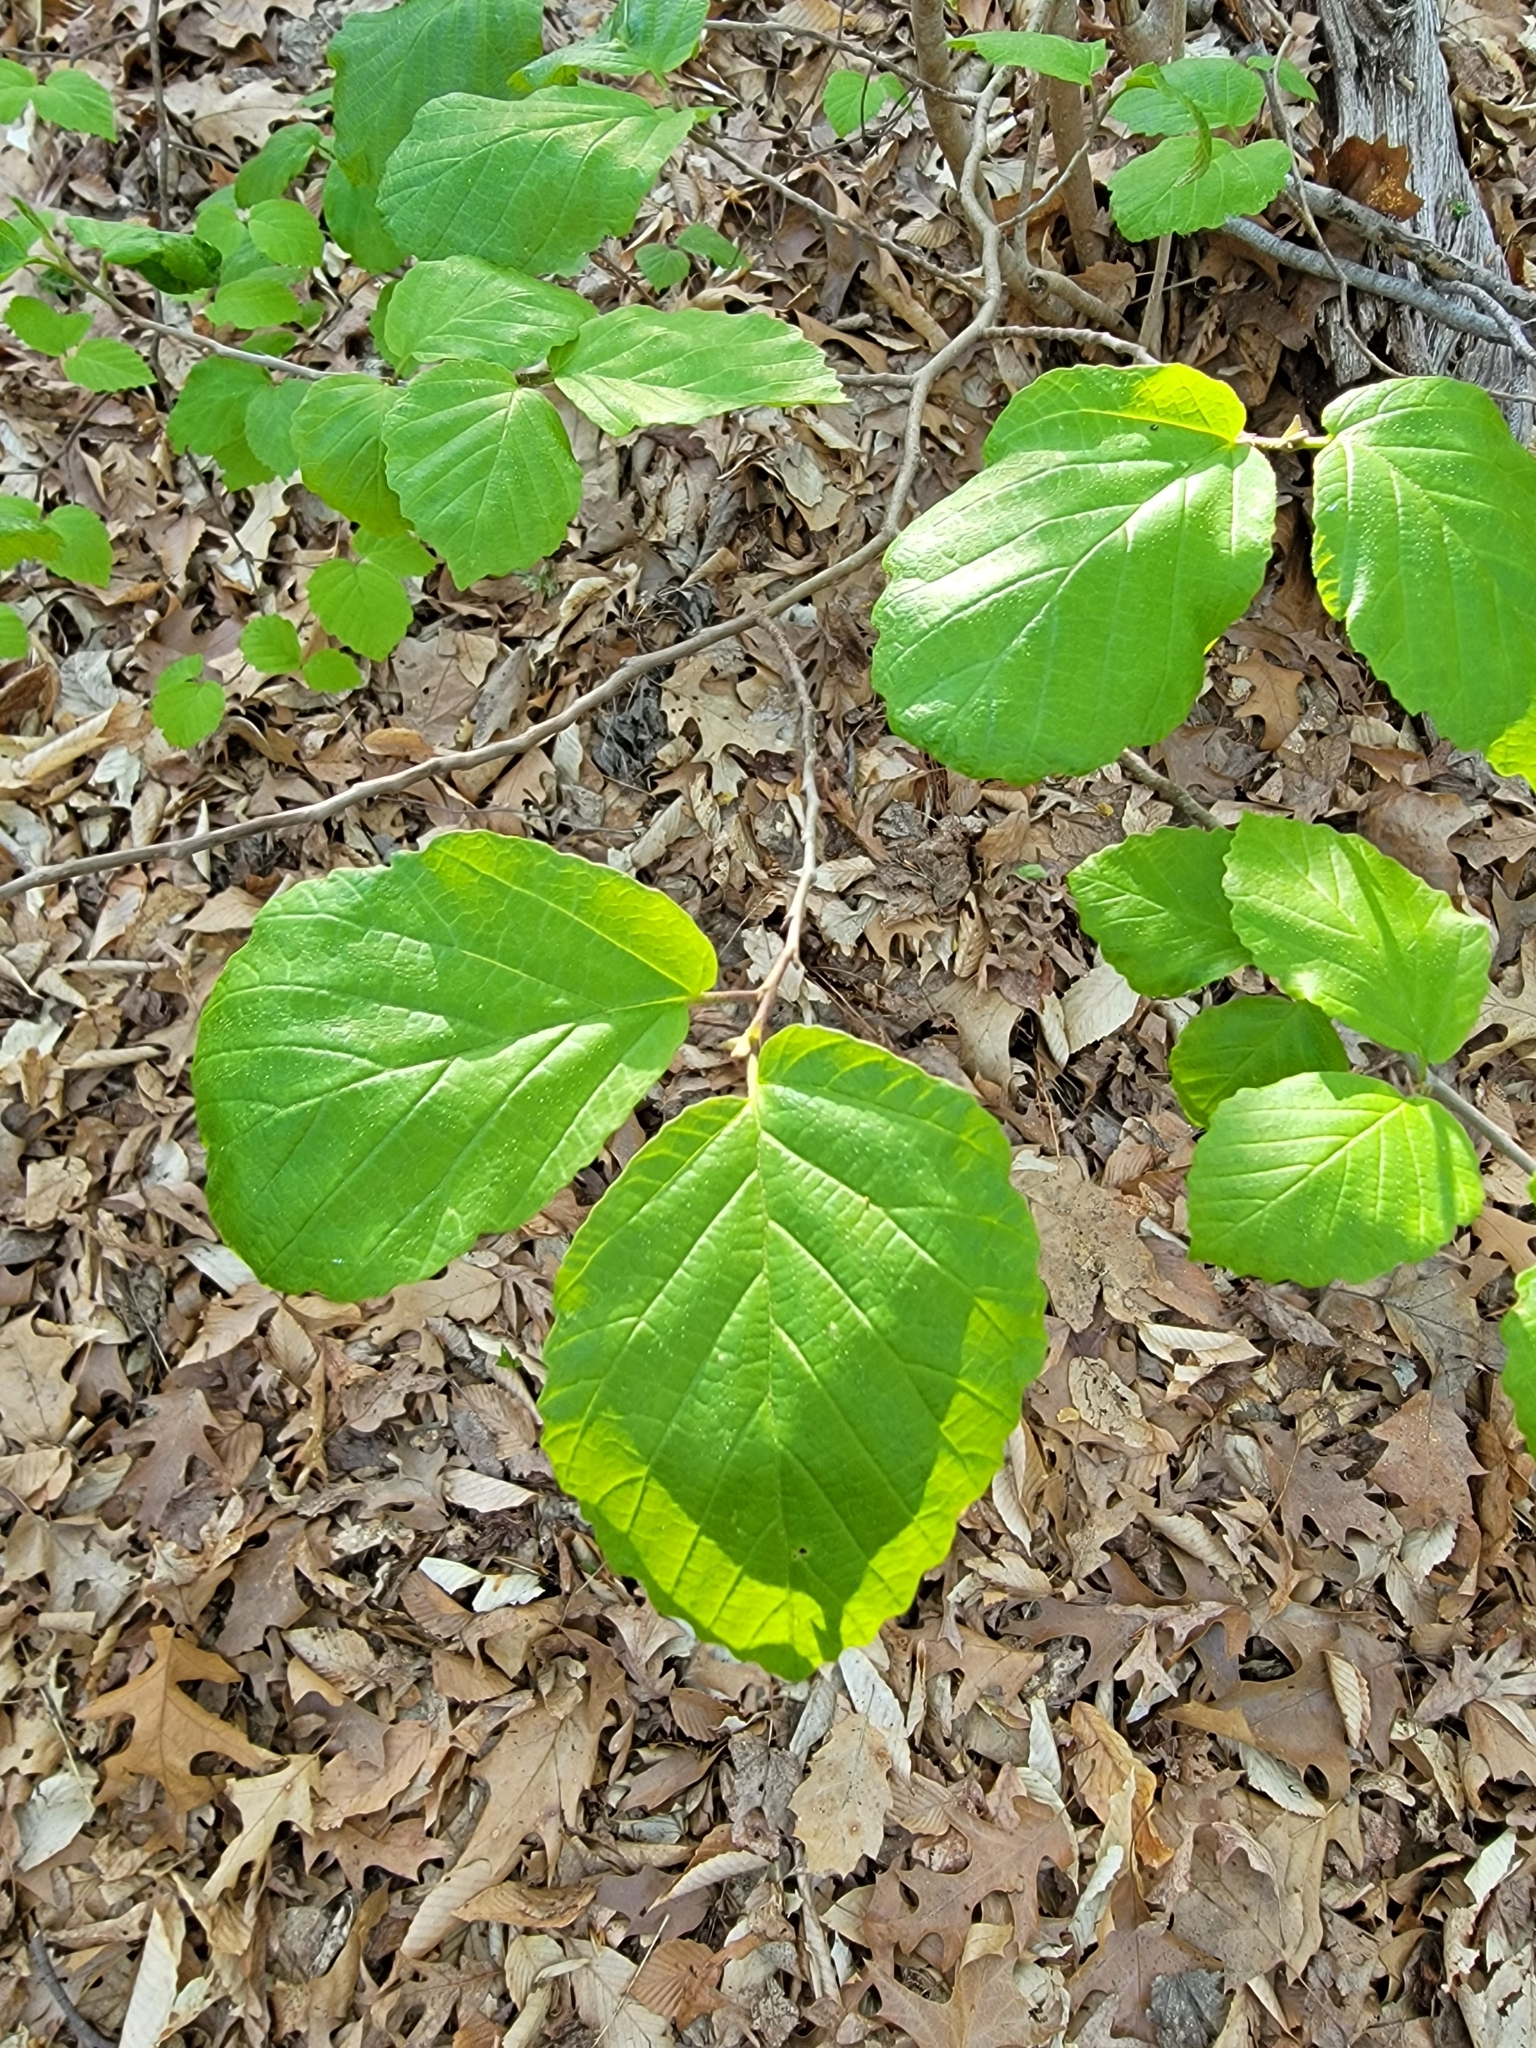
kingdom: Plantae
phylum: Tracheophyta
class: Magnoliopsida
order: Saxifragales
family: Hamamelidaceae
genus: Hamamelis
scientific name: Hamamelis virginiana
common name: Witch-hazel
